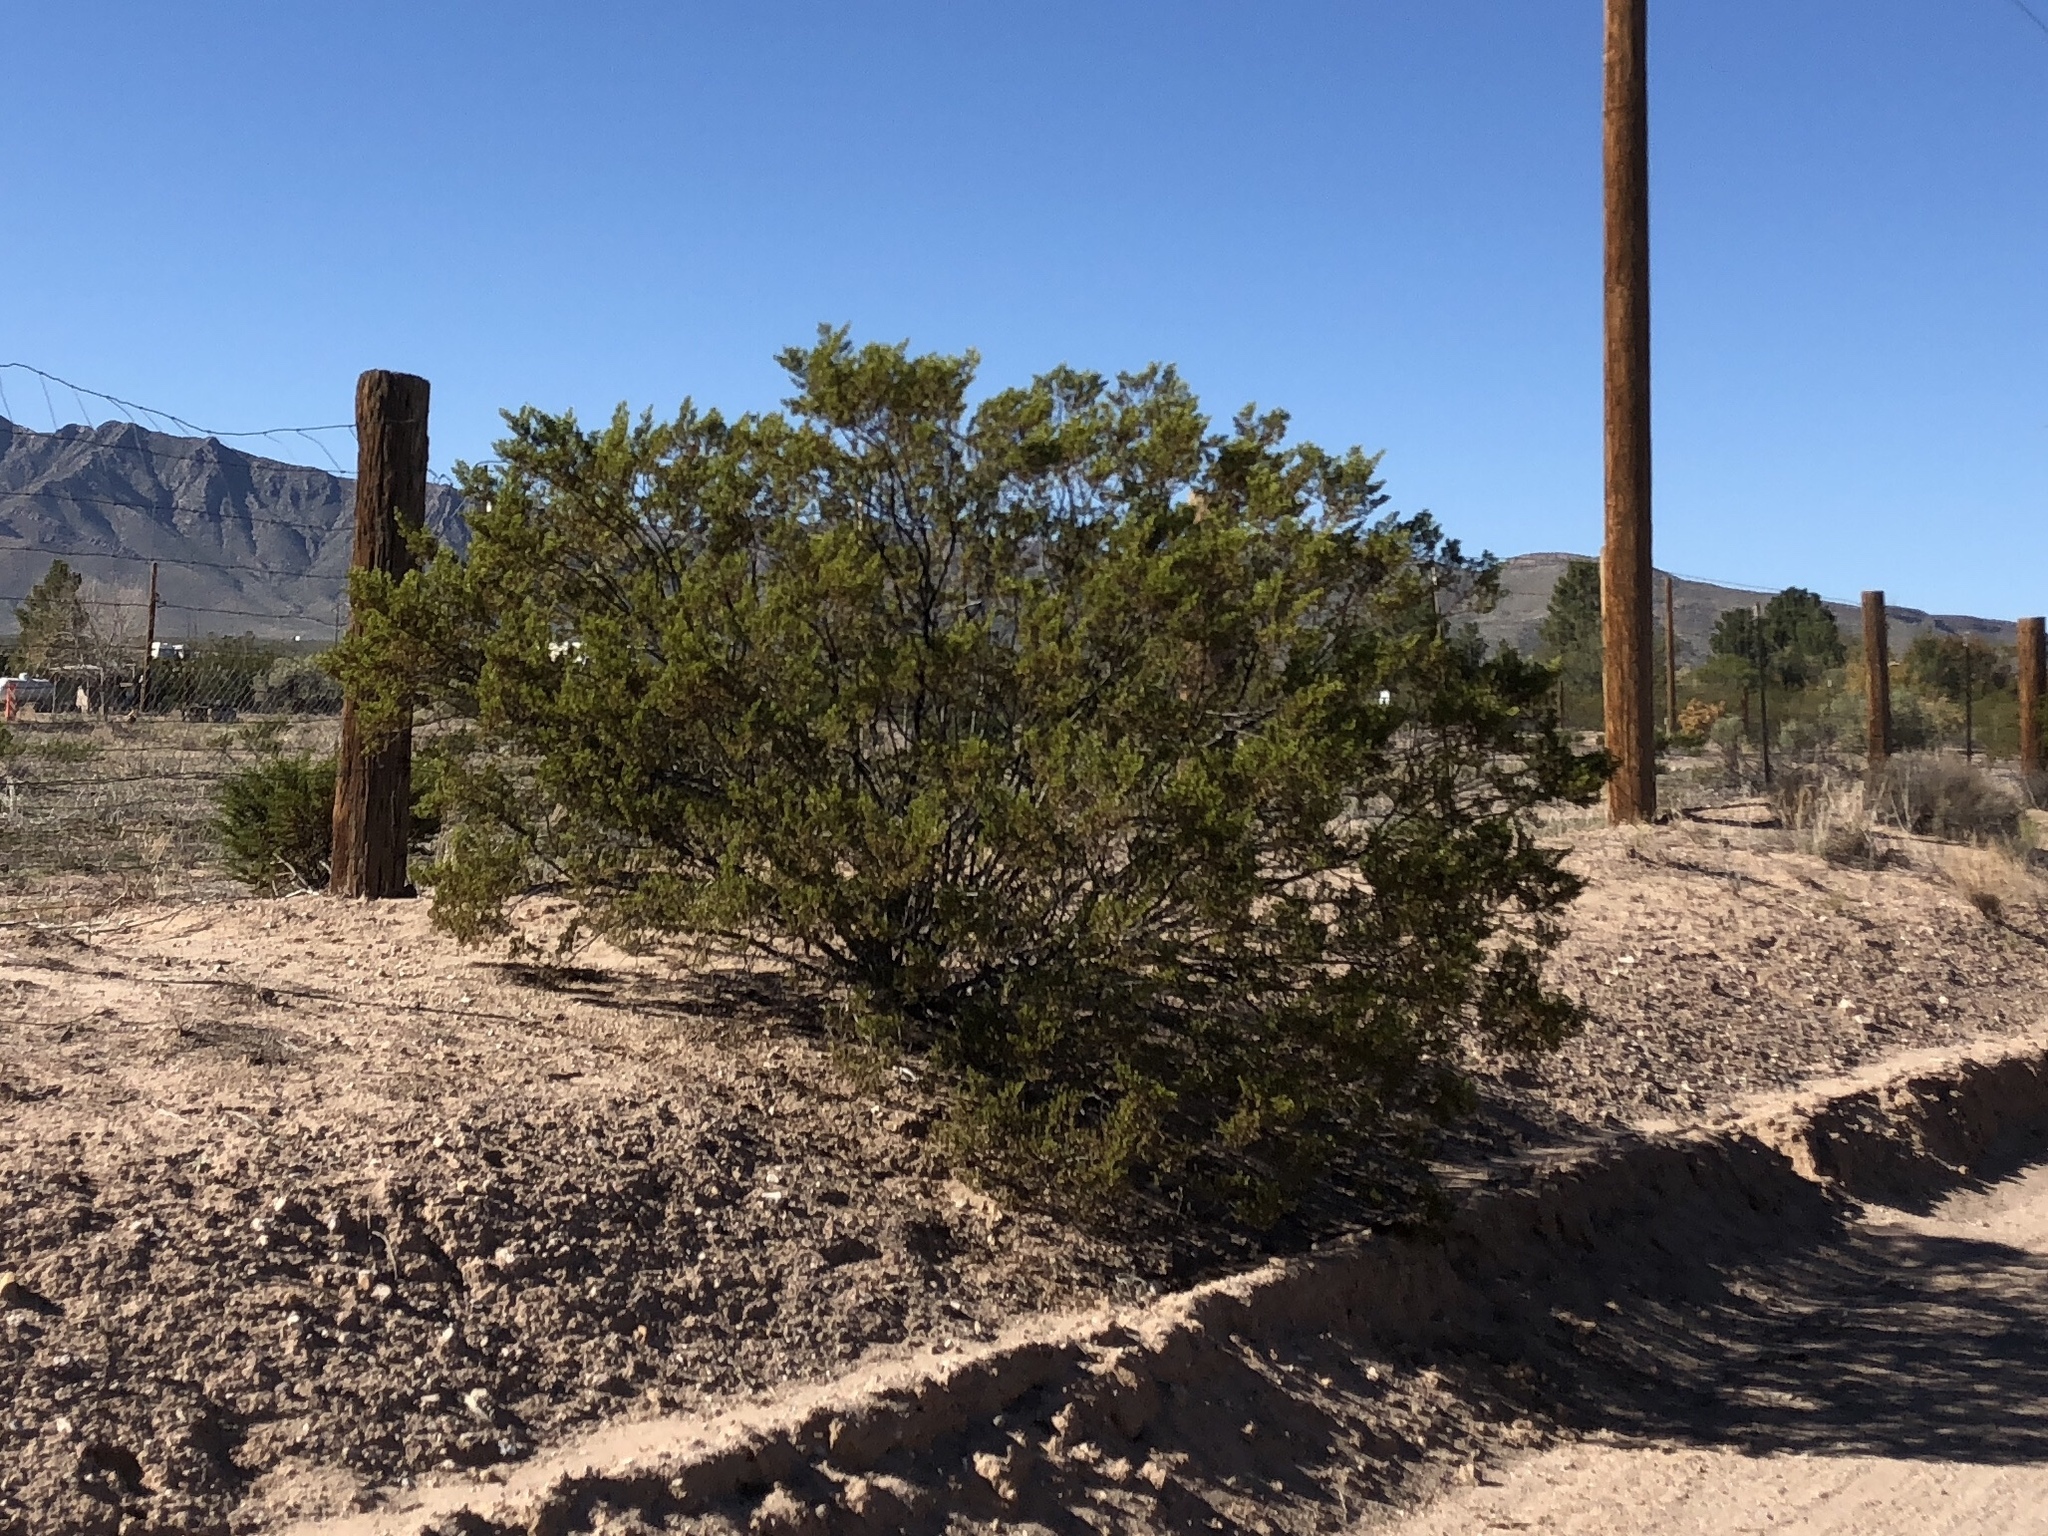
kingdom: Plantae
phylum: Tracheophyta
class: Magnoliopsida
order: Zygophyllales
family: Zygophyllaceae
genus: Larrea
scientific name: Larrea tridentata
